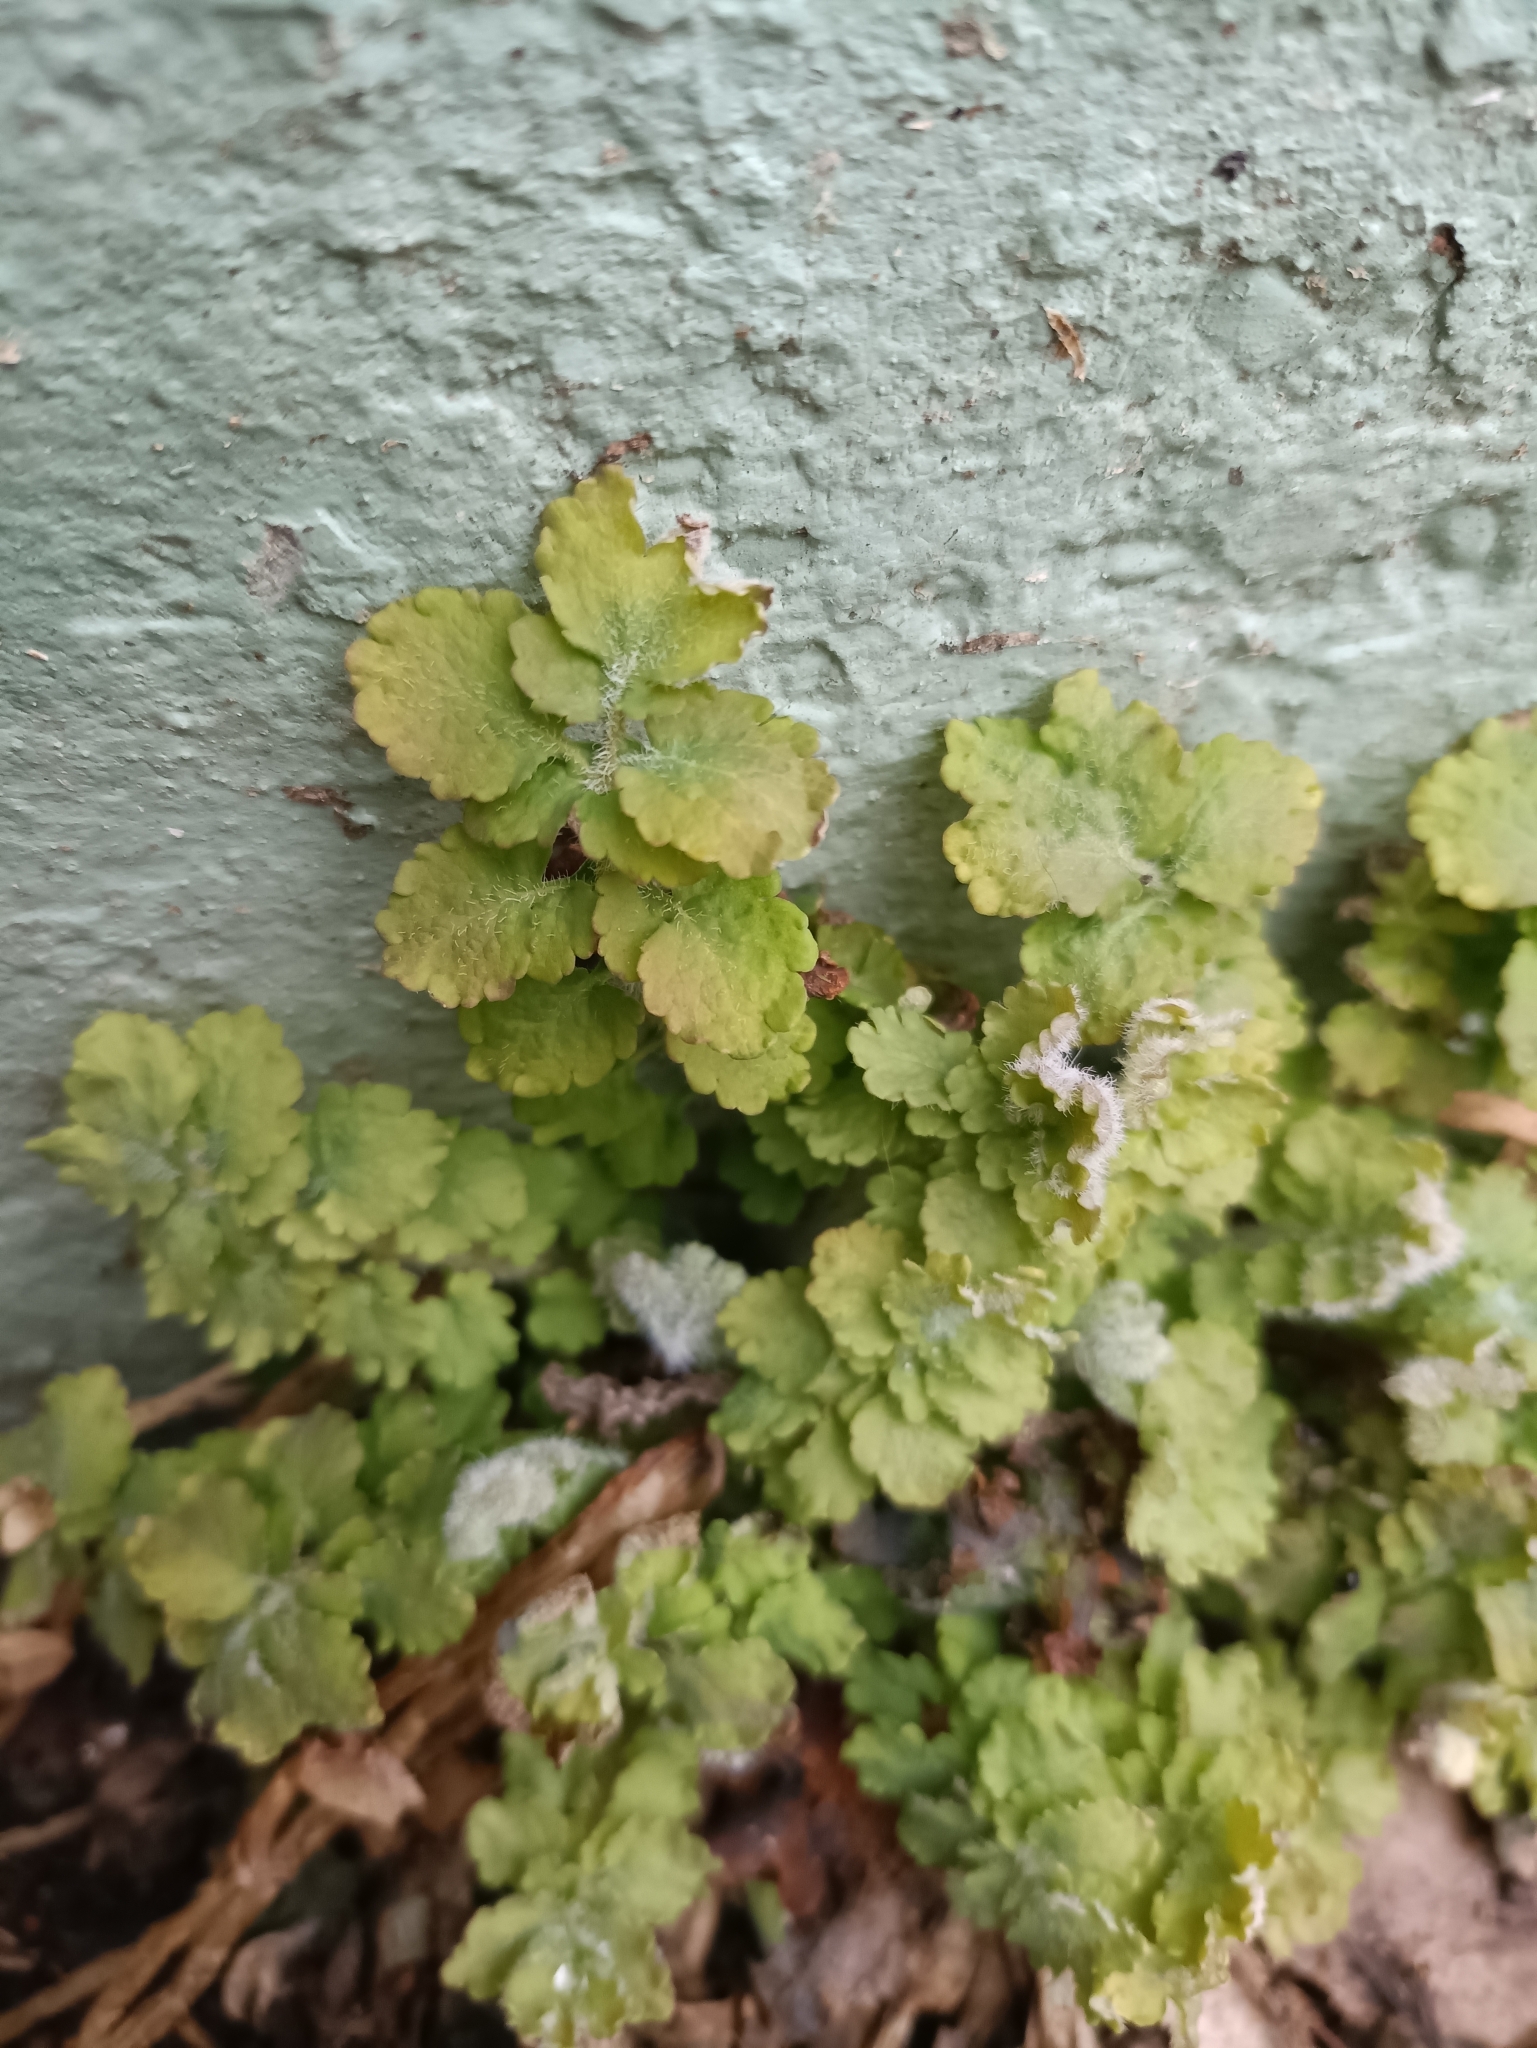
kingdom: Plantae
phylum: Tracheophyta
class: Magnoliopsida
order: Ranunculales
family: Papaveraceae
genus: Chelidonium
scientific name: Chelidonium majus
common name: Greater celandine
